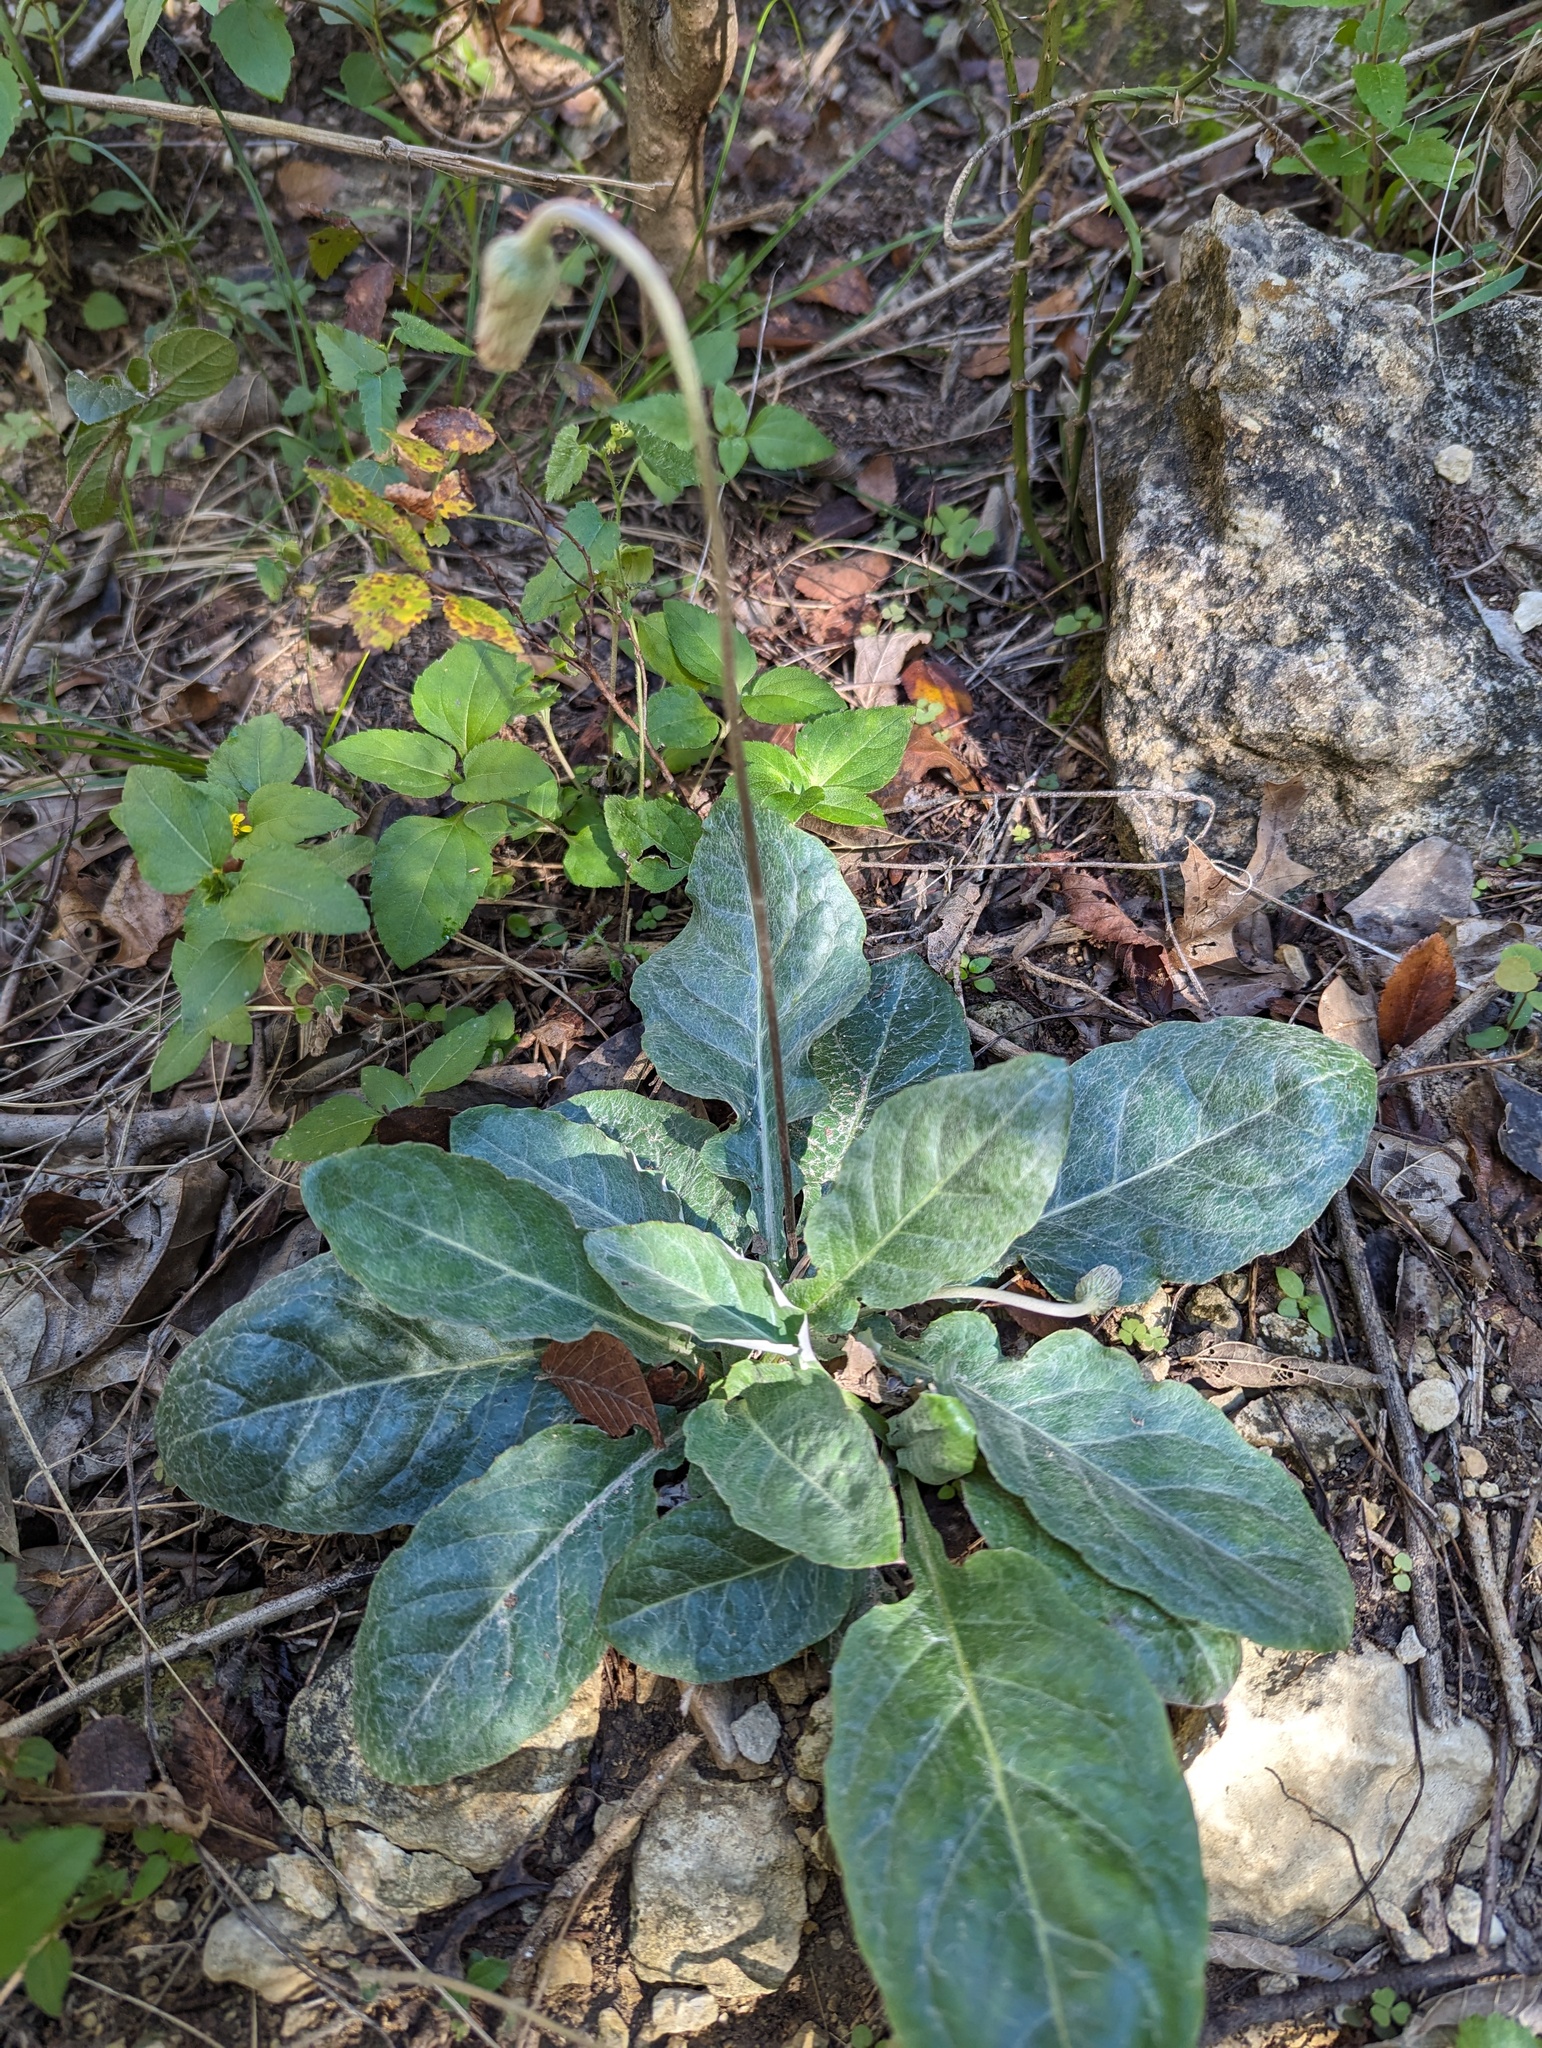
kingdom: Plantae
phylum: Tracheophyta
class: Magnoliopsida
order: Asterales
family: Asteraceae
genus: Chaptalia
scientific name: Chaptalia texana
